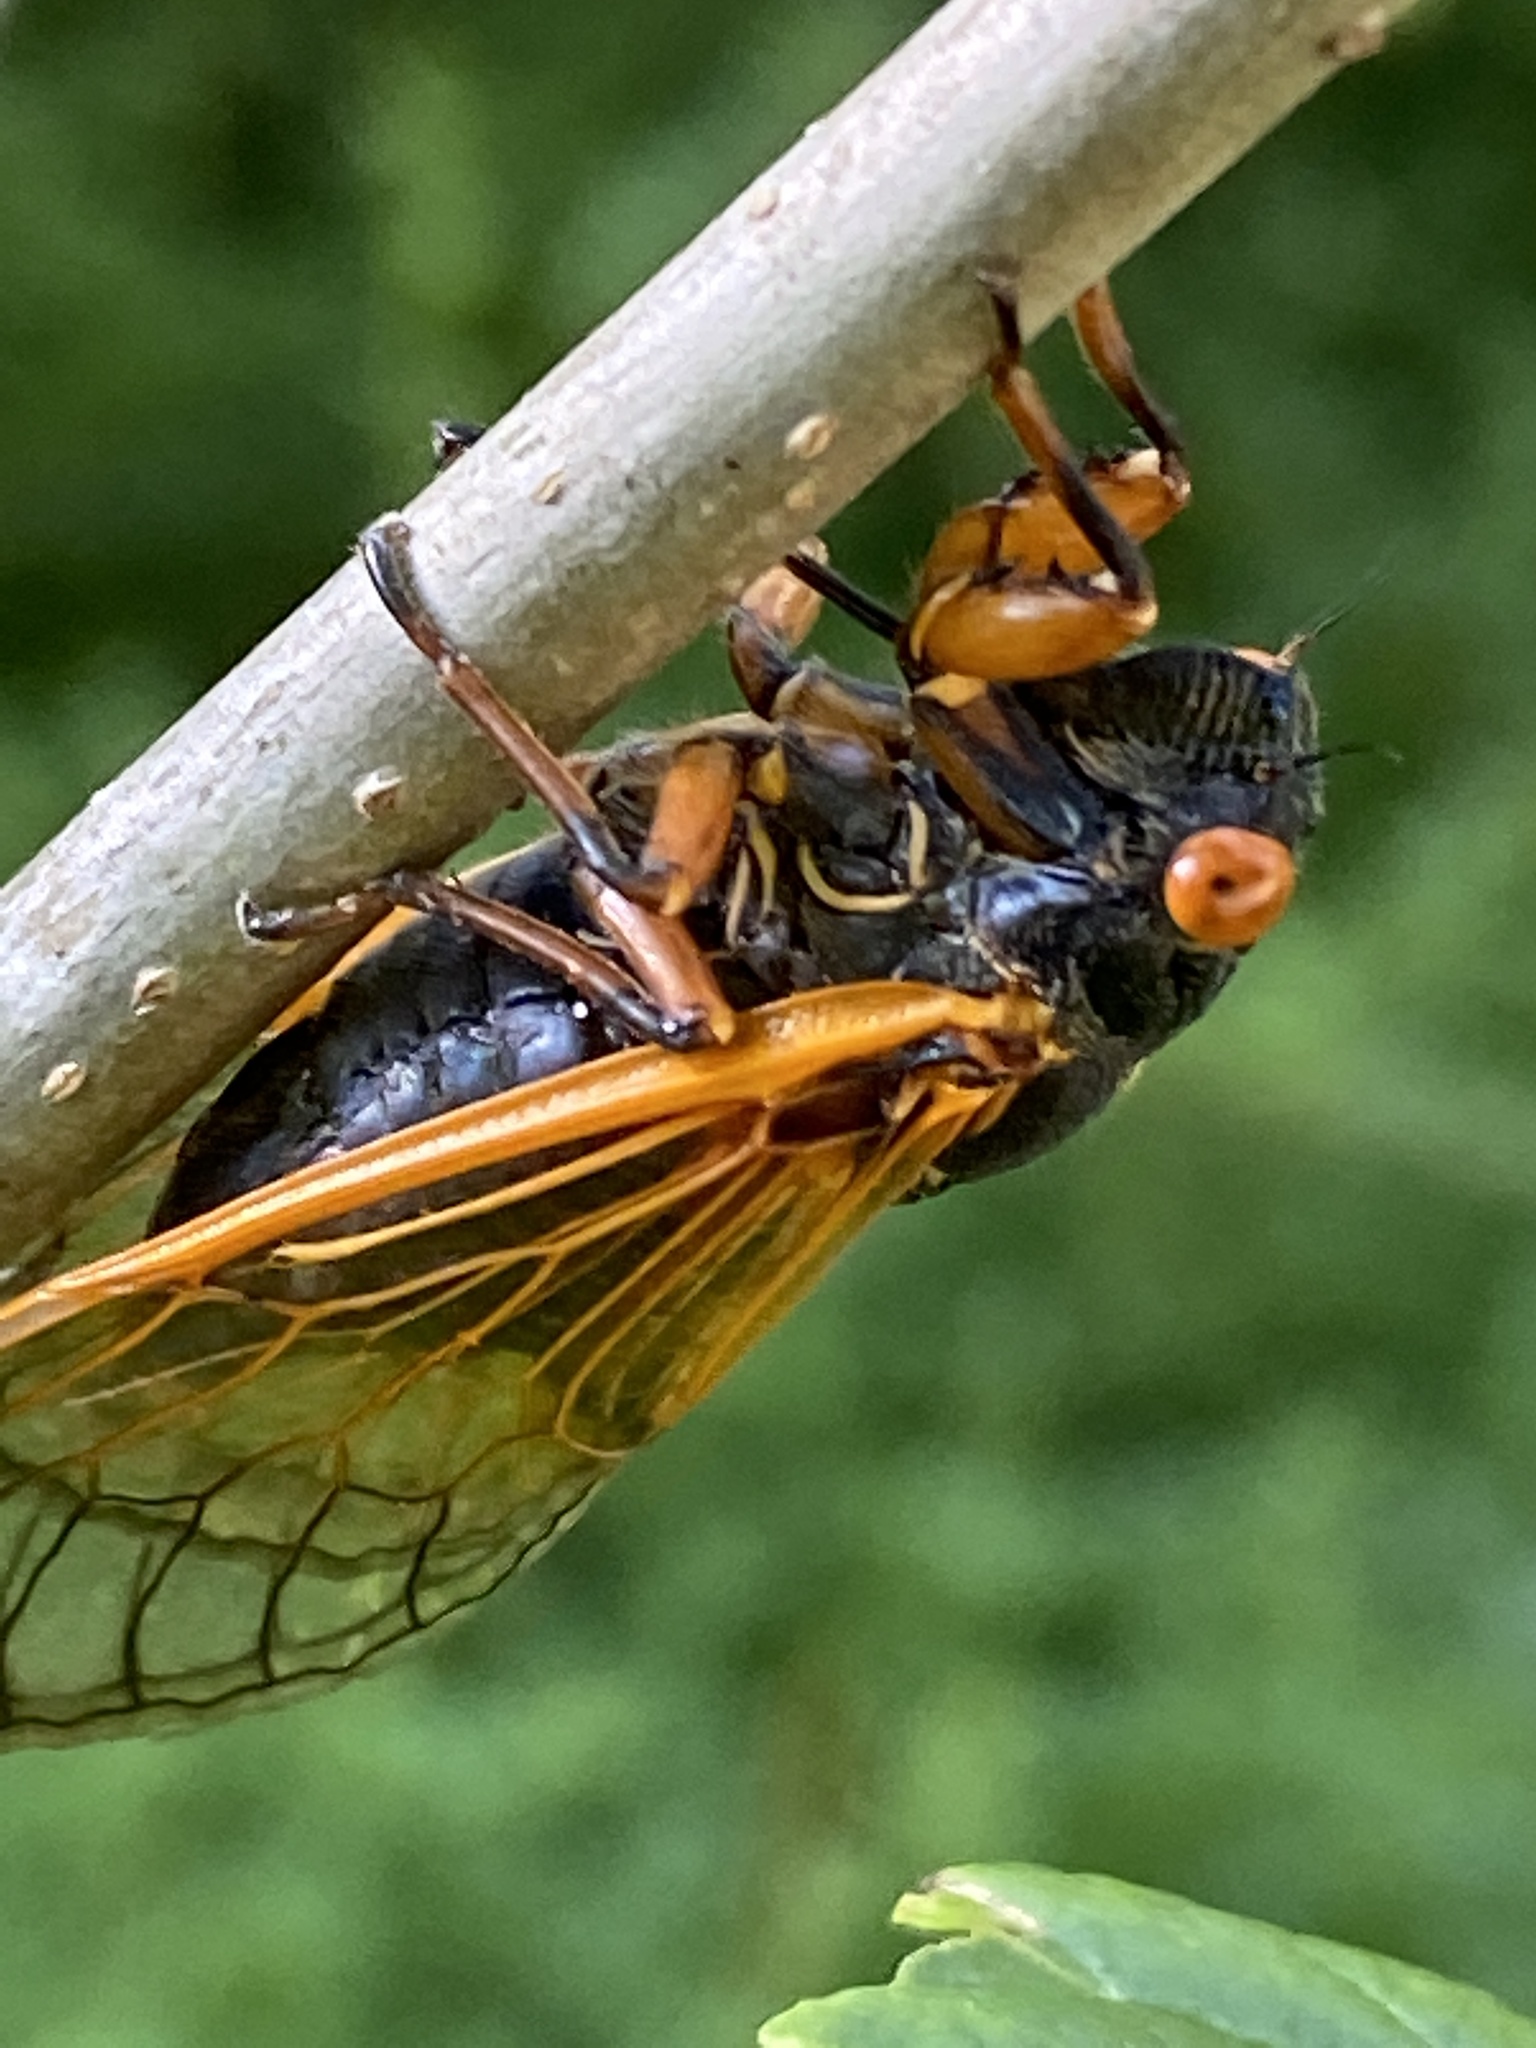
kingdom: Animalia
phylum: Arthropoda
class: Insecta
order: Hemiptera
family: Cicadidae
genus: Magicicada
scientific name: Magicicada cassini
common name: Cassin's 17-year cicada
